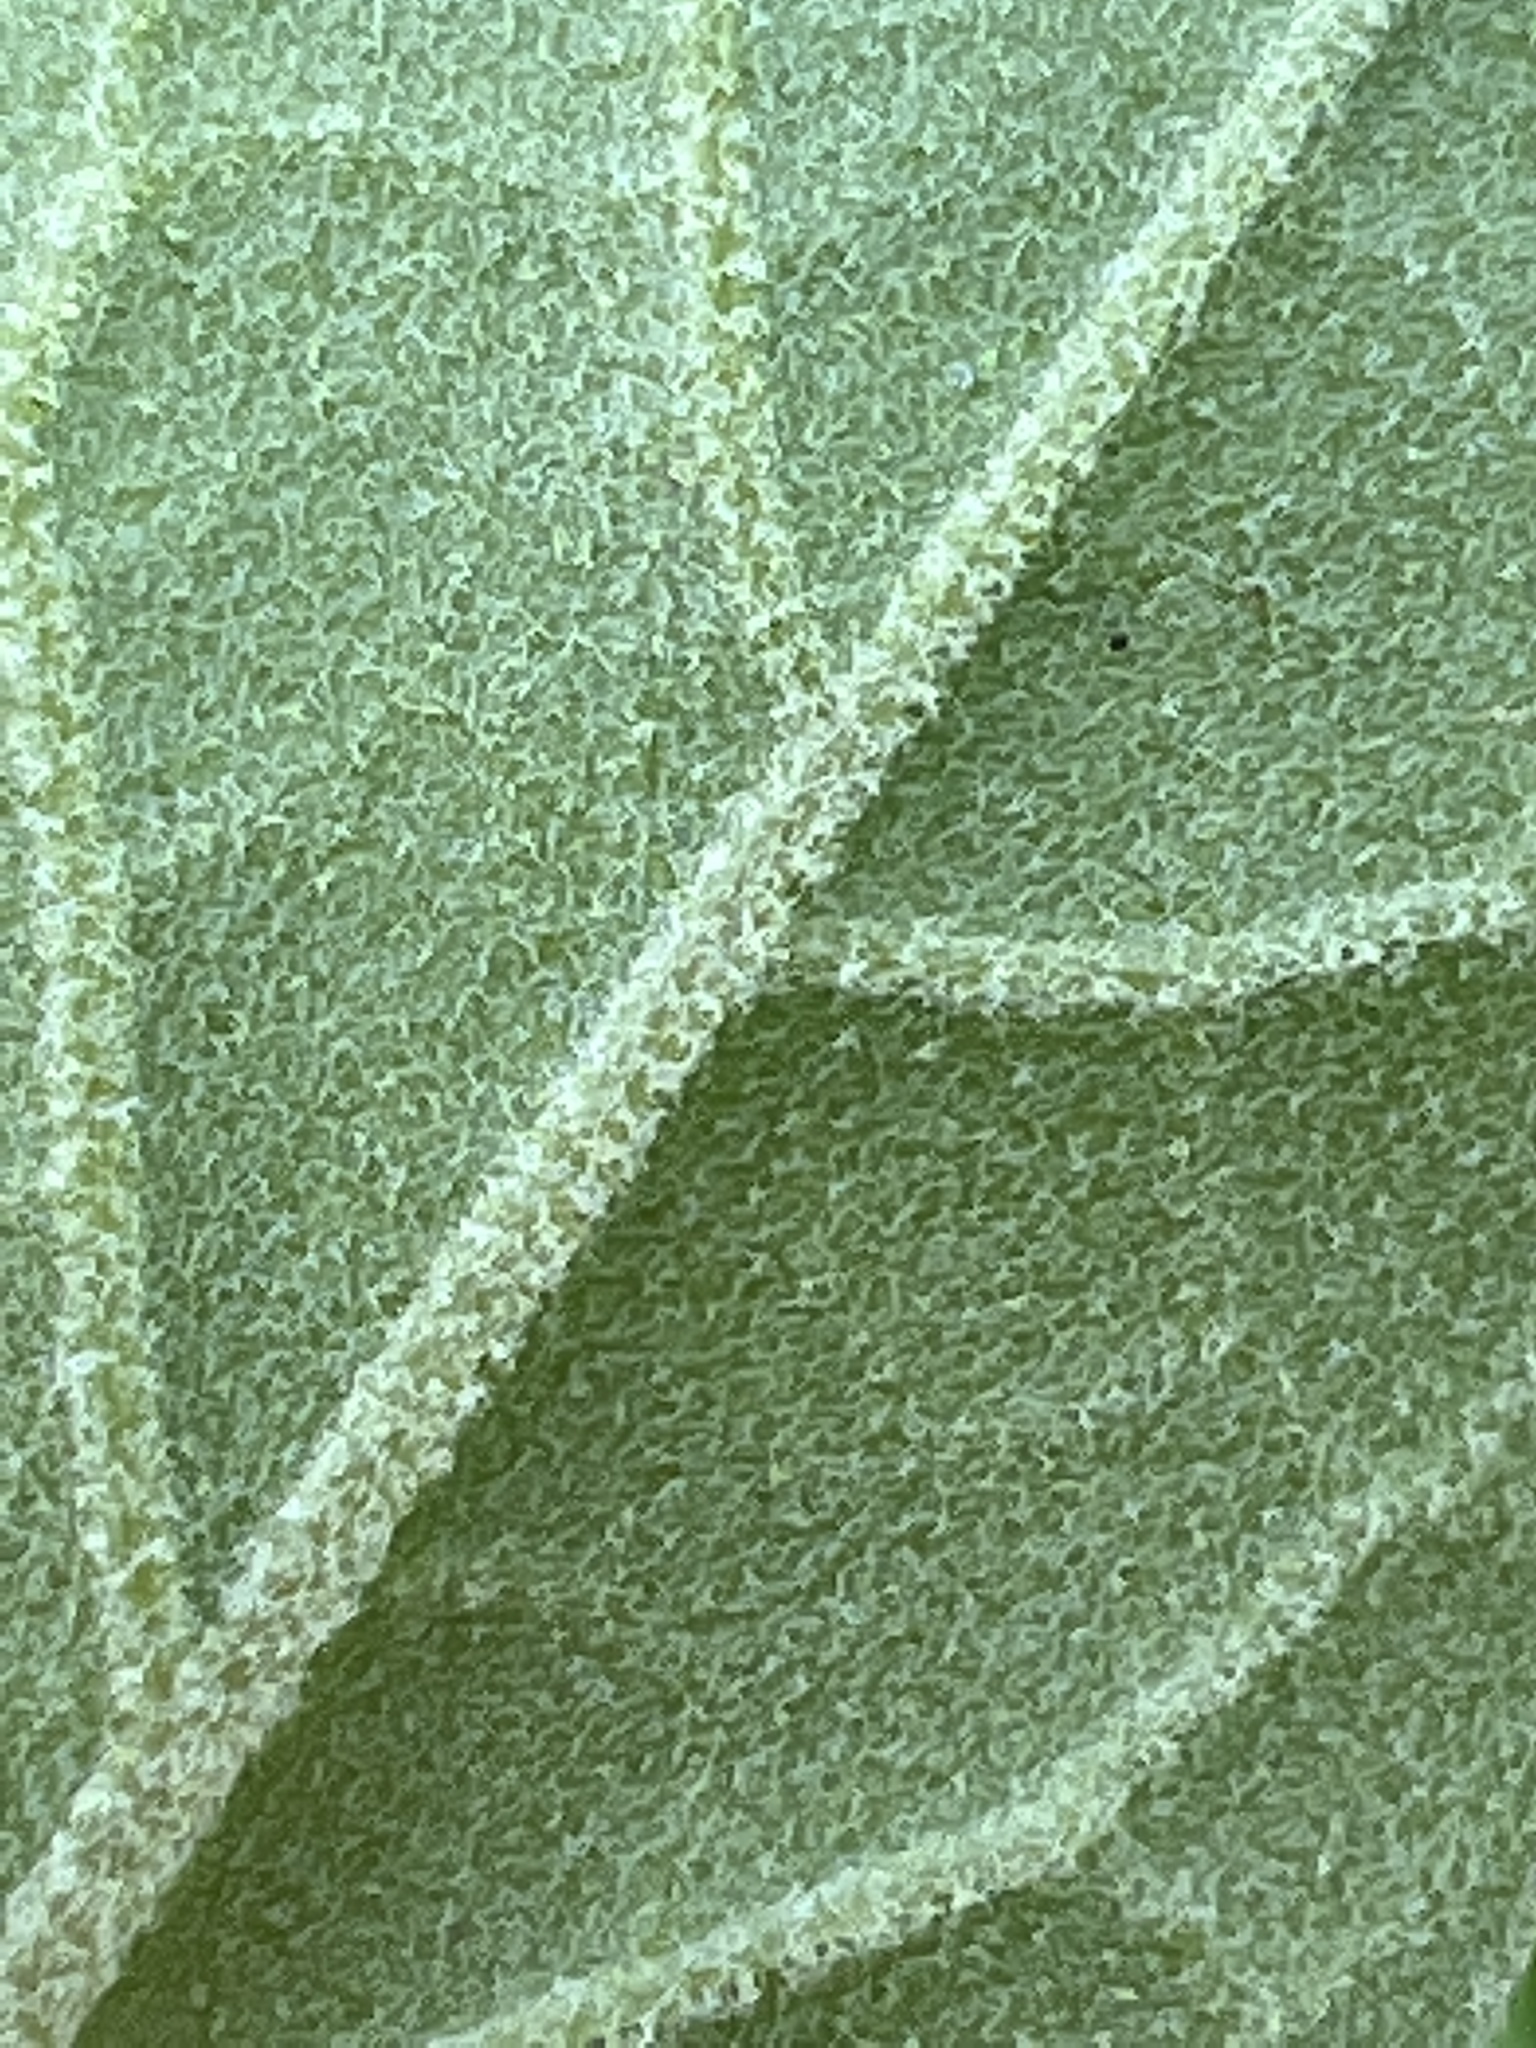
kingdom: Plantae
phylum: Tracheophyta
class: Magnoliopsida
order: Solanales
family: Solanaceae
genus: Physalis
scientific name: Physalis walteri
